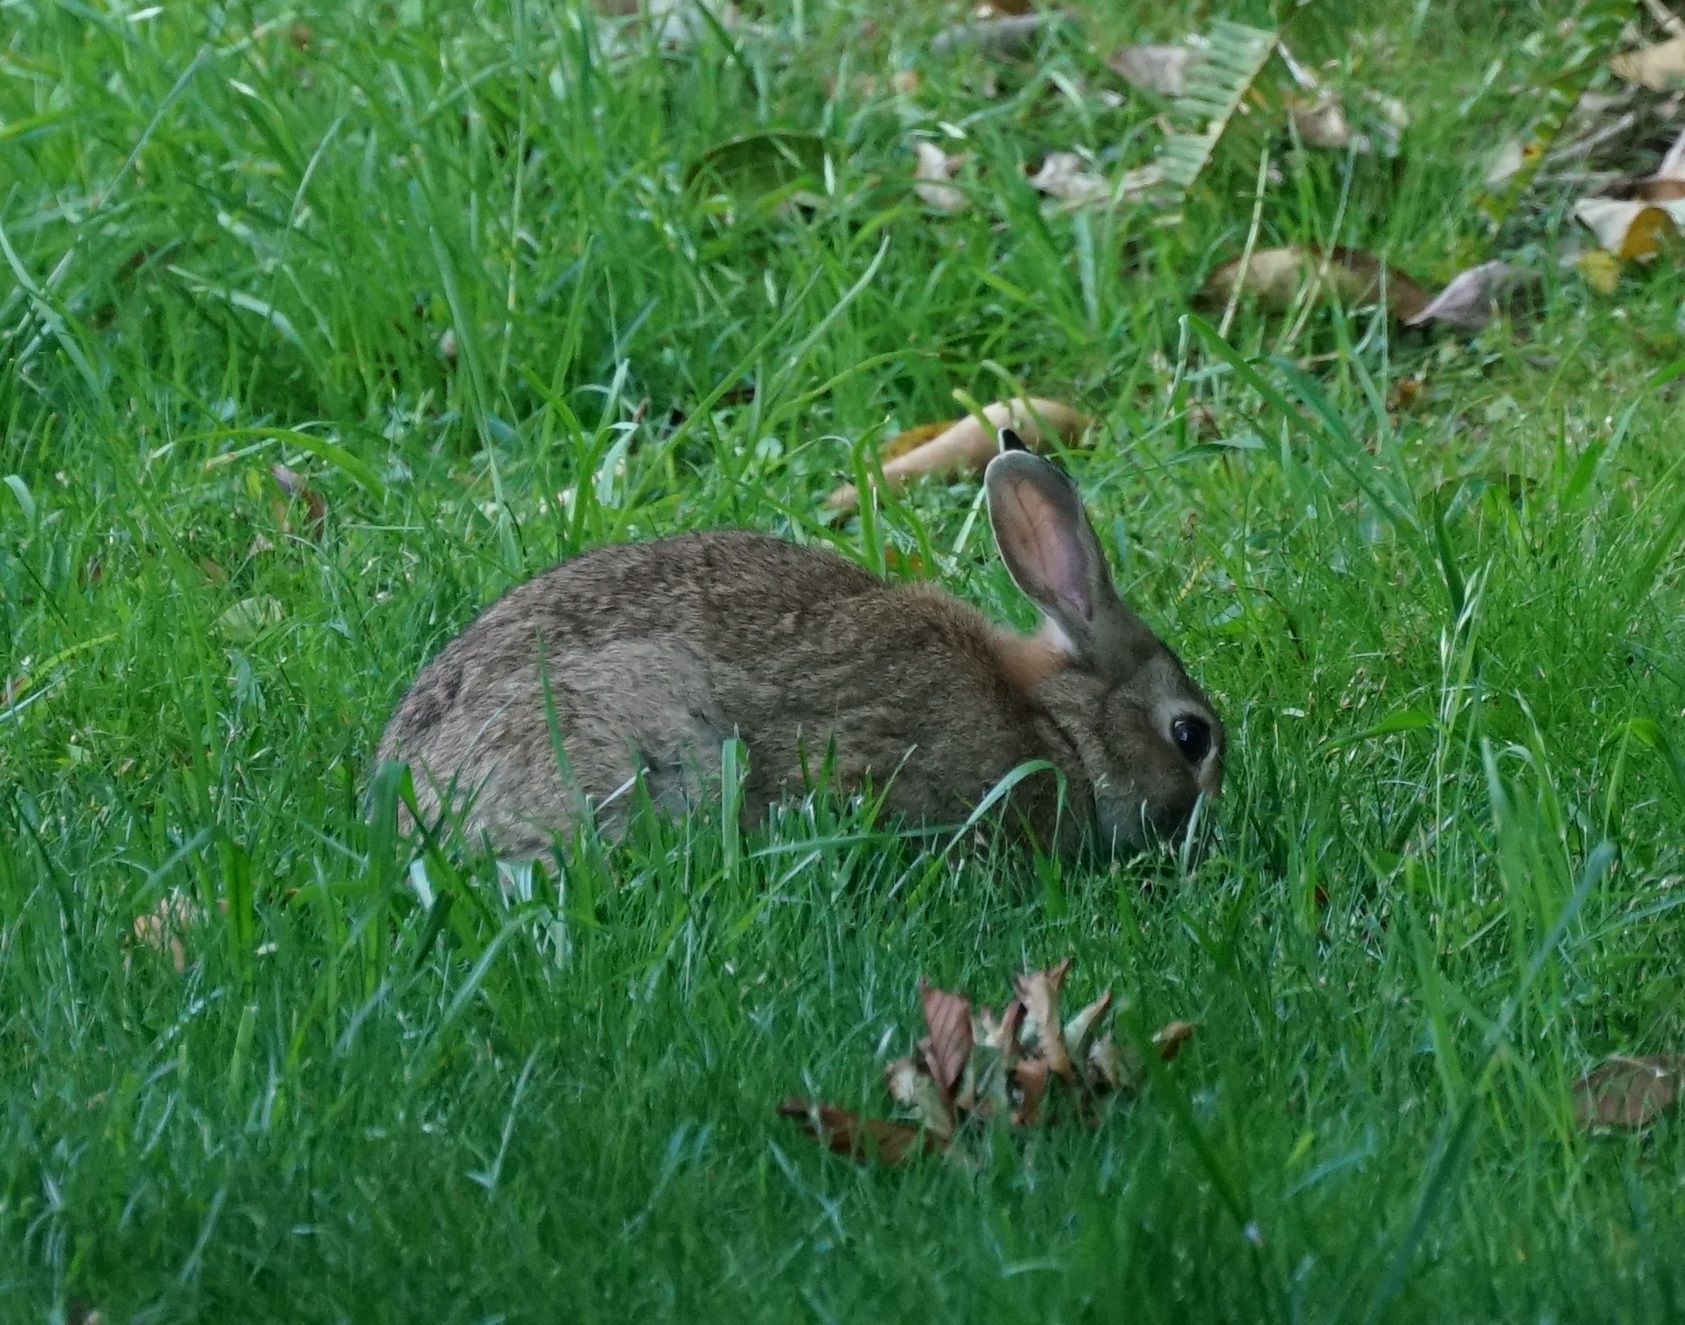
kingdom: Animalia
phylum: Chordata
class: Mammalia
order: Lagomorpha
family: Leporidae
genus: Oryctolagus
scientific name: Oryctolagus cuniculus
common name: European rabbit
